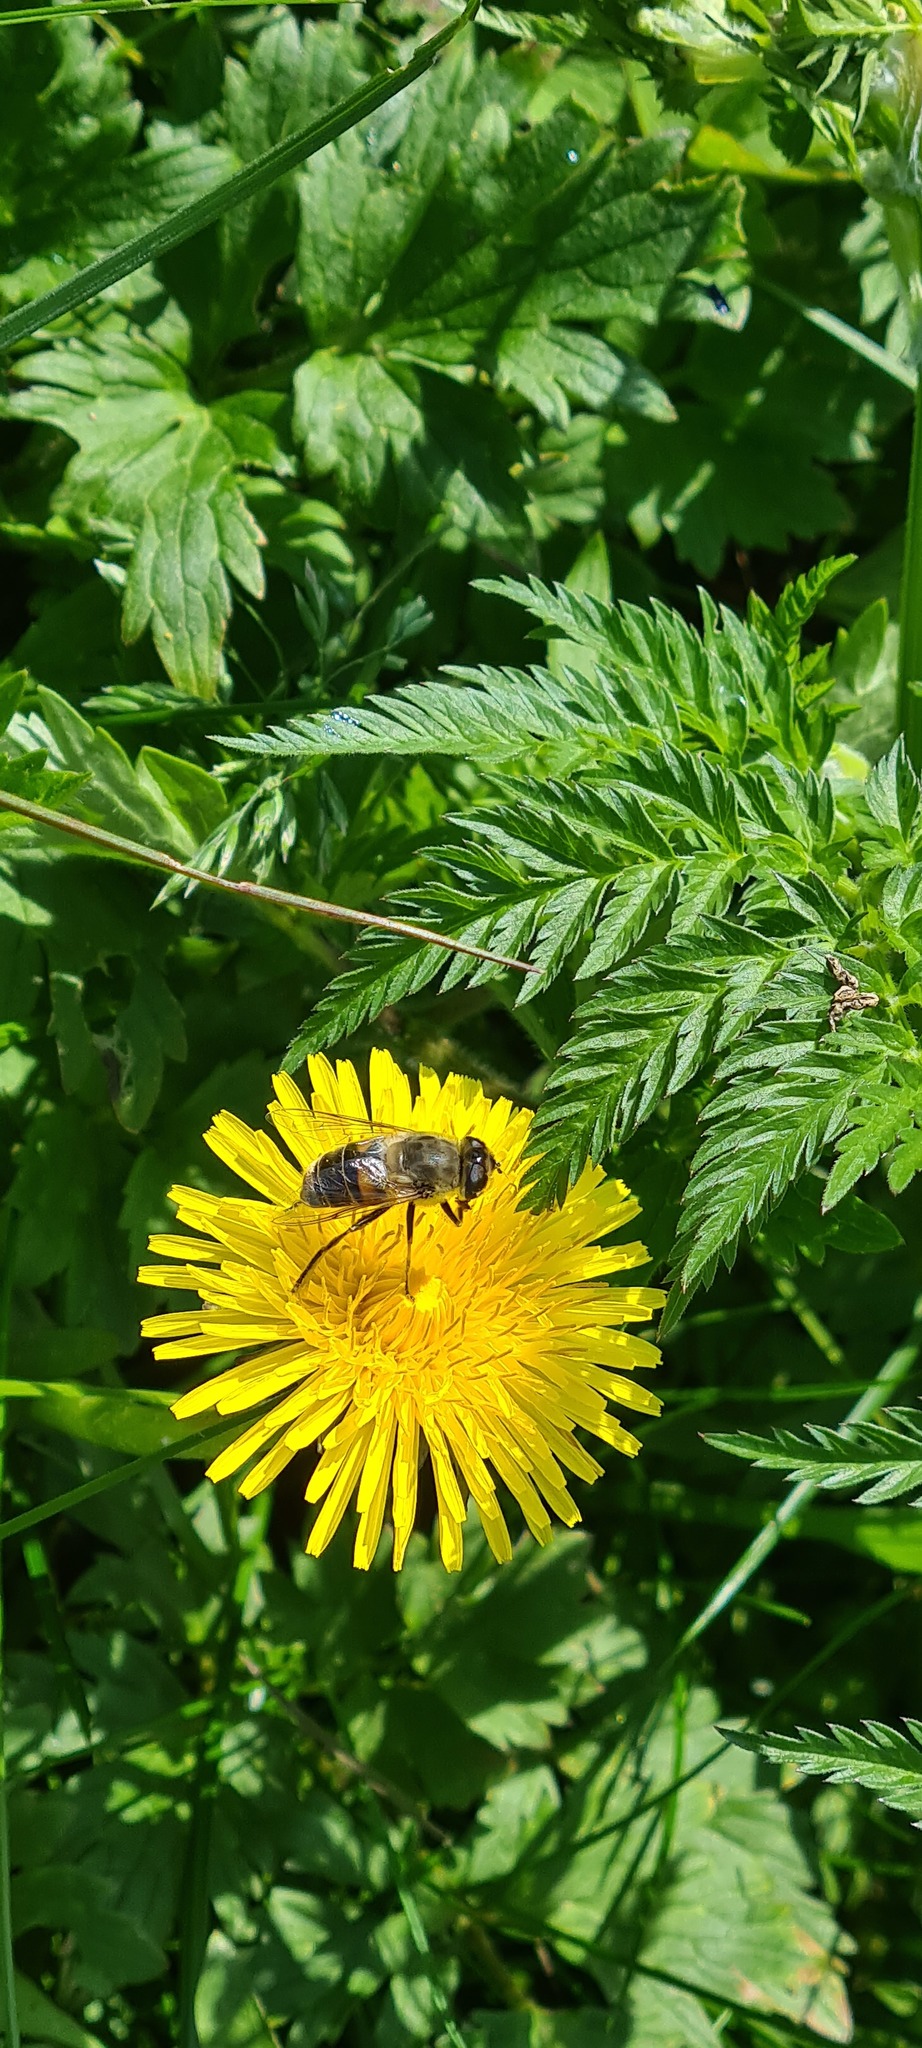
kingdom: Animalia
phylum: Arthropoda
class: Insecta
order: Diptera
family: Syrphidae
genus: Eristalis
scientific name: Eristalis tenax
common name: Drone fly
